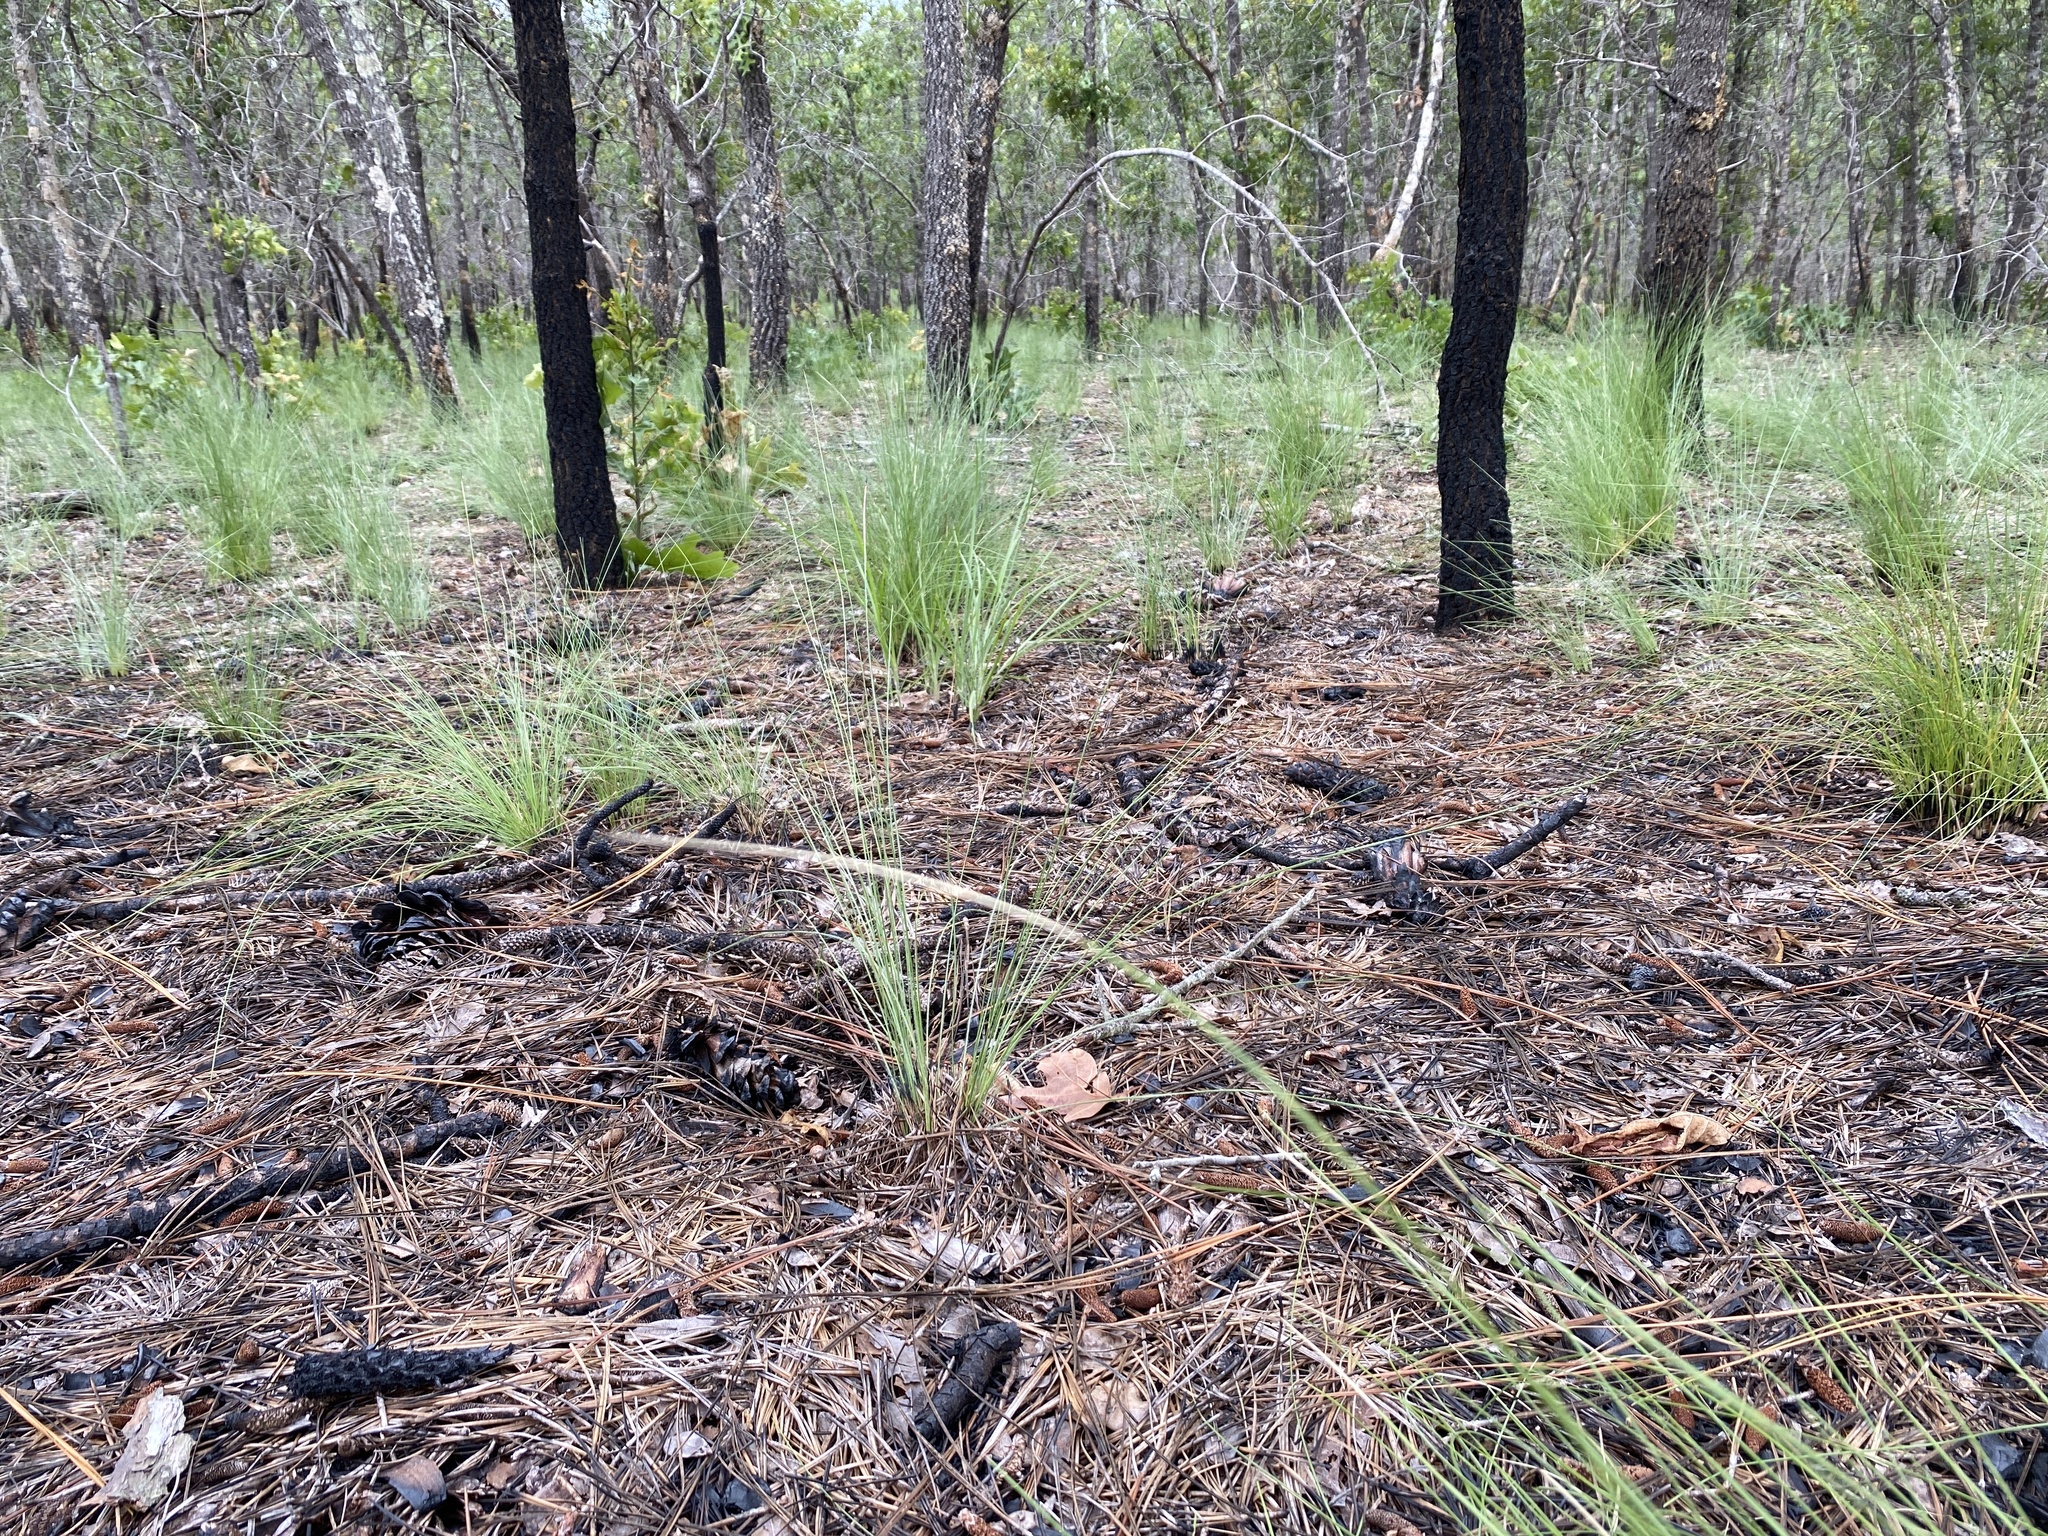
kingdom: Plantae
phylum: Tracheophyta
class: Liliopsida
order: Poales
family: Poaceae
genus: Aristida
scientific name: Aristida stricta
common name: Pineland three-awn
